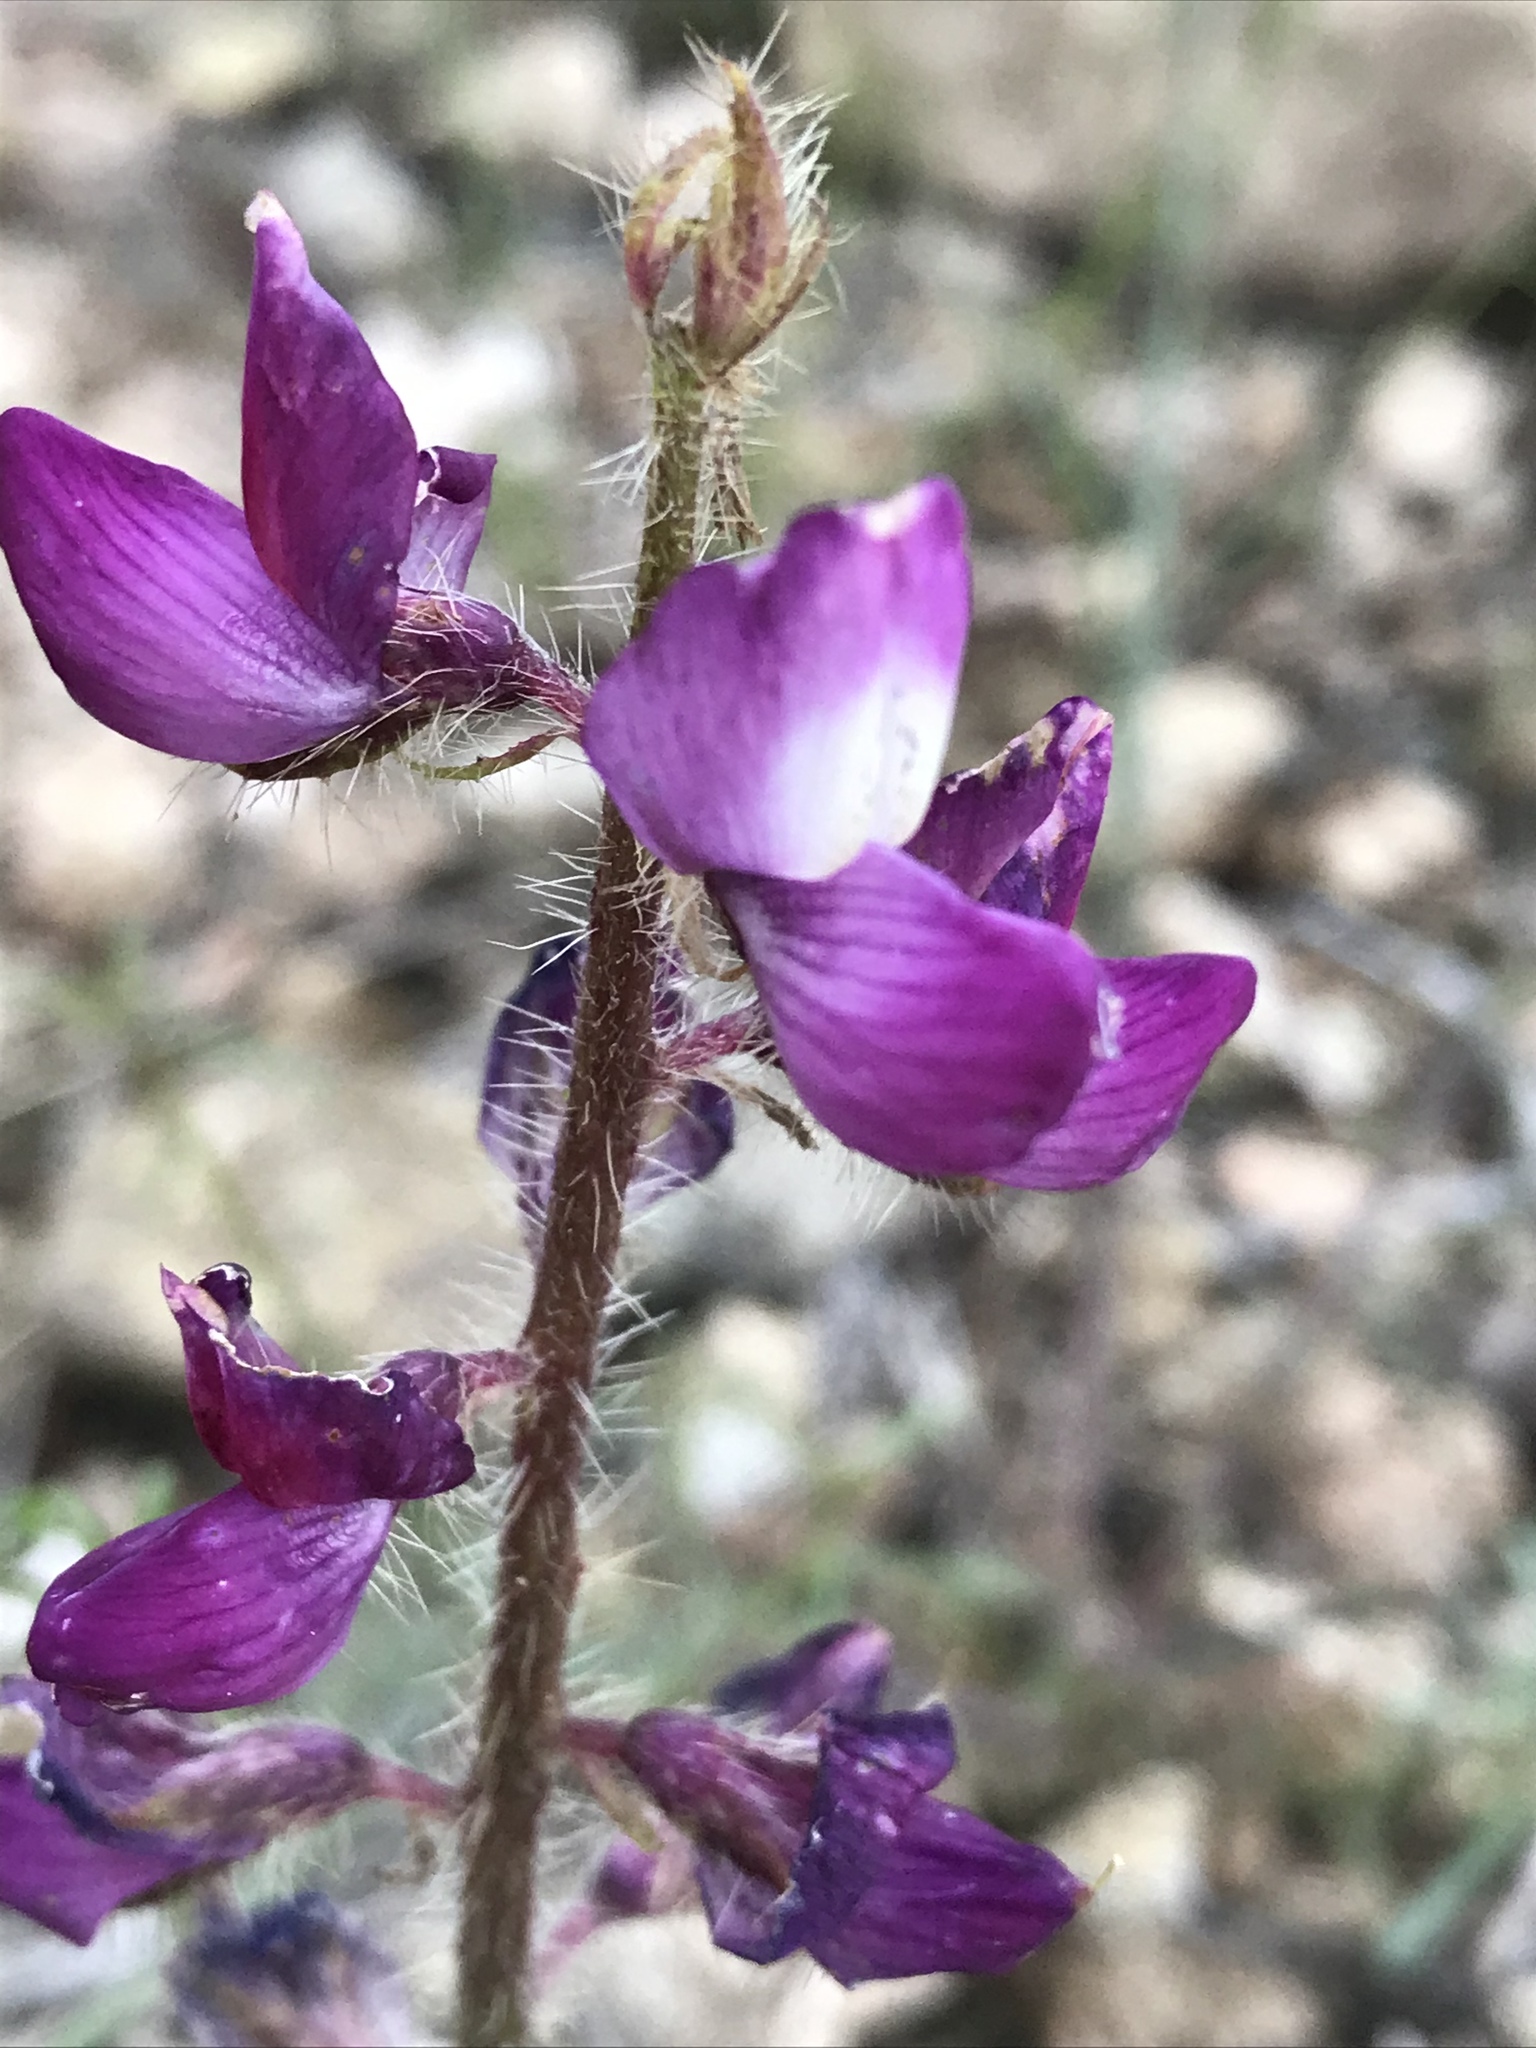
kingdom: Plantae
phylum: Tracheophyta
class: Magnoliopsida
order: Fabales
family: Fabaceae
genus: Lupinus
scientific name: Lupinus hirsutissimus
